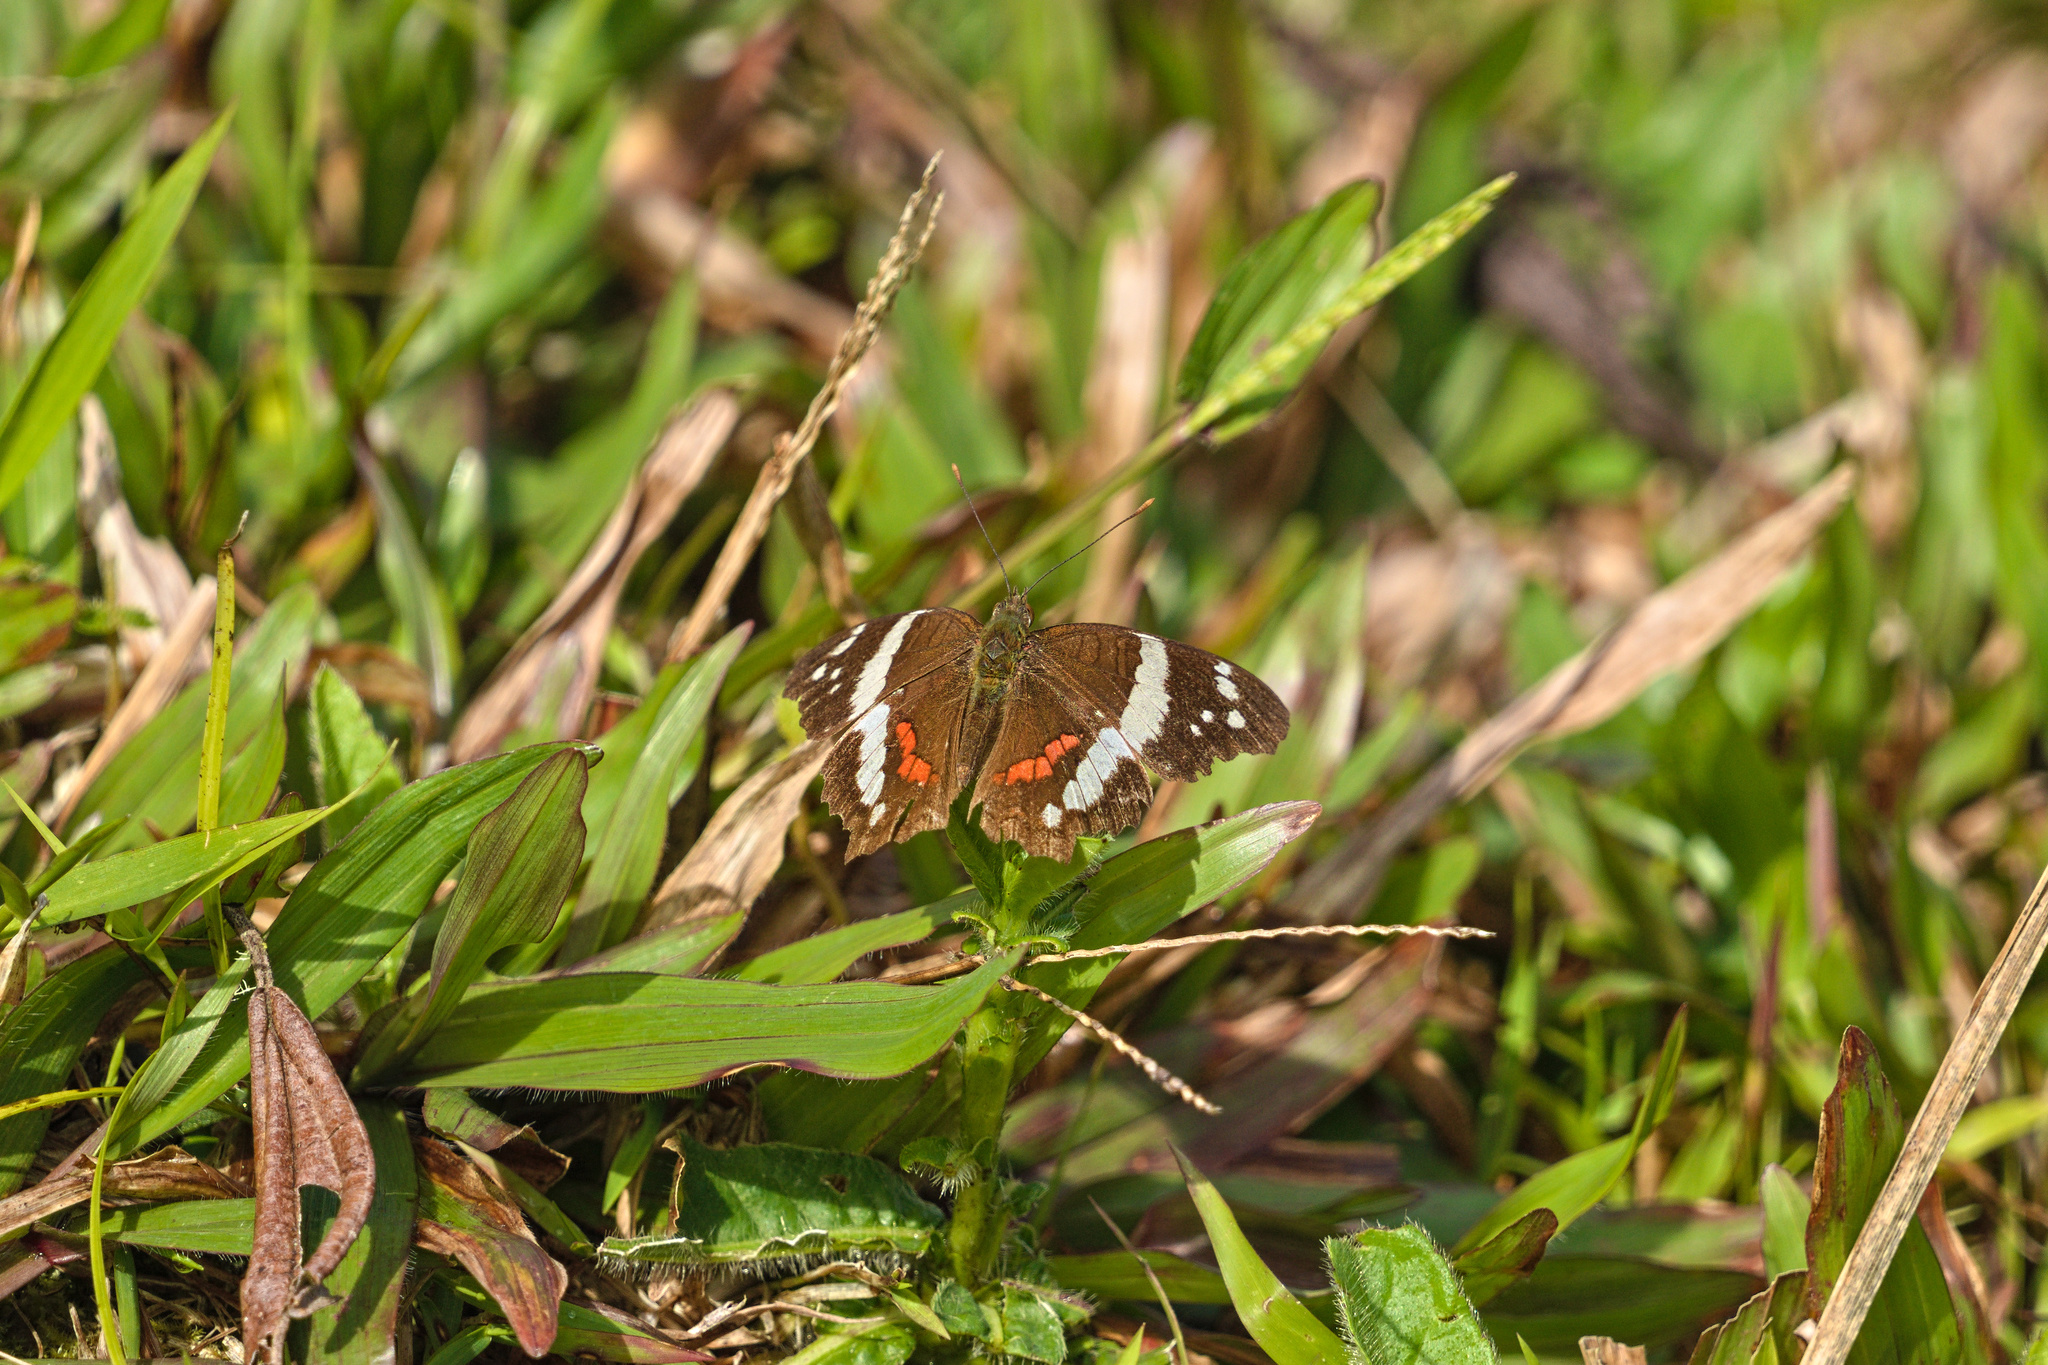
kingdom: Animalia
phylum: Arthropoda
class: Insecta
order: Lepidoptera
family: Nymphalidae
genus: Anartia
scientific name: Anartia fatima
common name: Banded peacock
